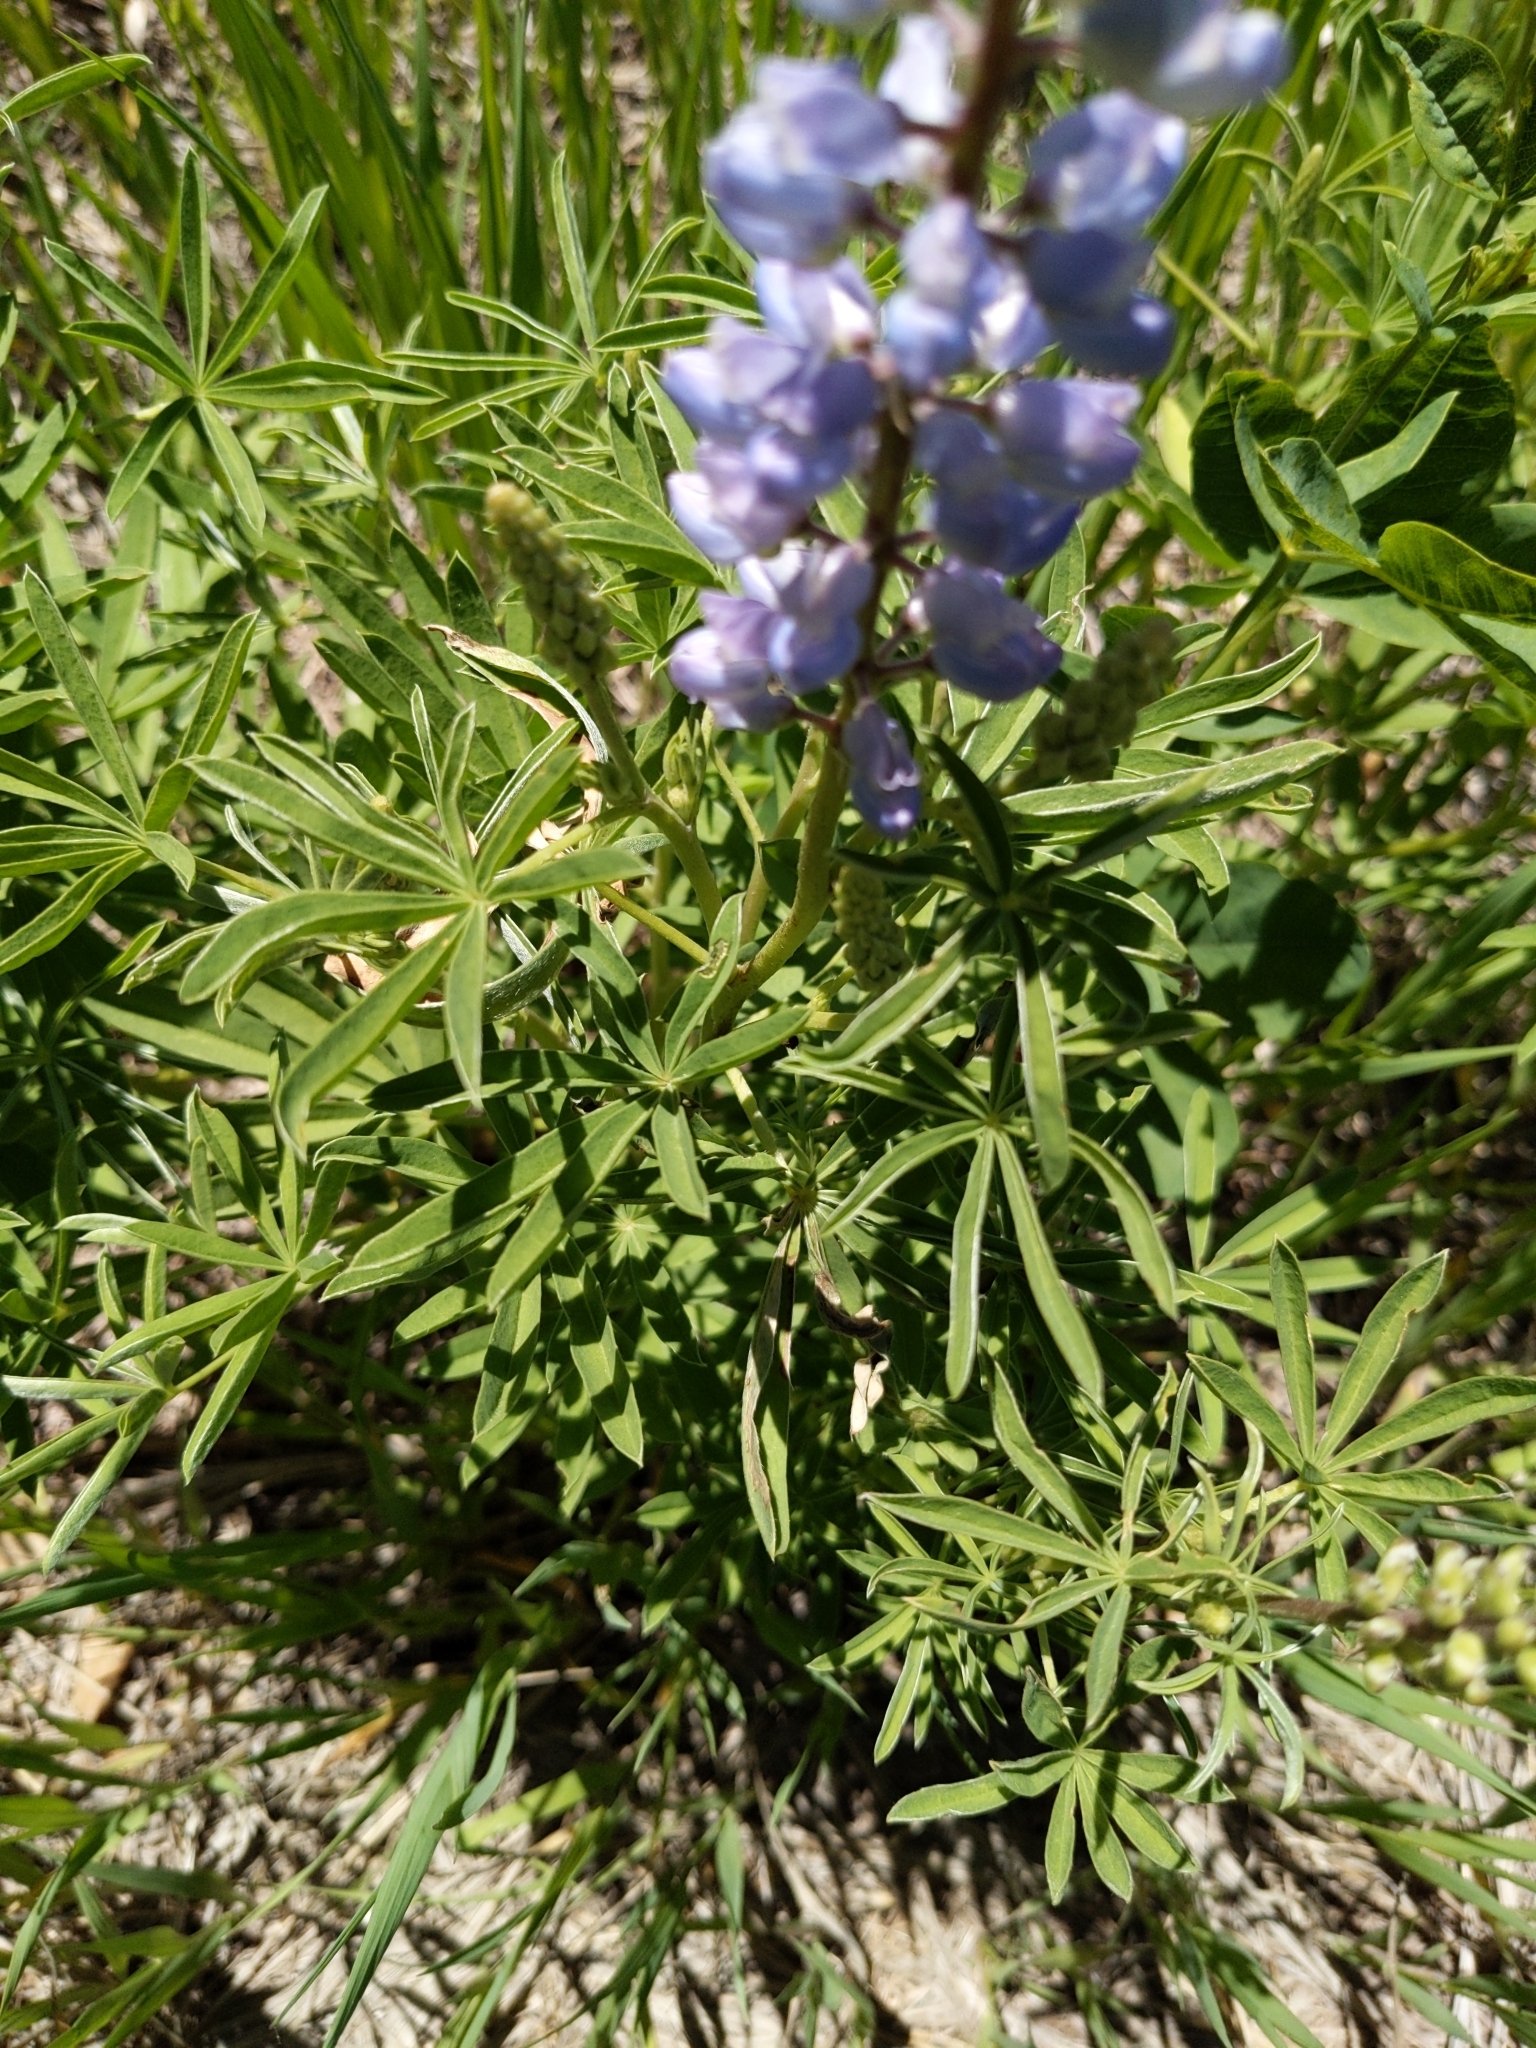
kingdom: Plantae
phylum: Tracheophyta
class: Magnoliopsida
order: Fabales
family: Fabaceae
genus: Lupinus
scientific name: Lupinus argenteus
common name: Silvery lupine
